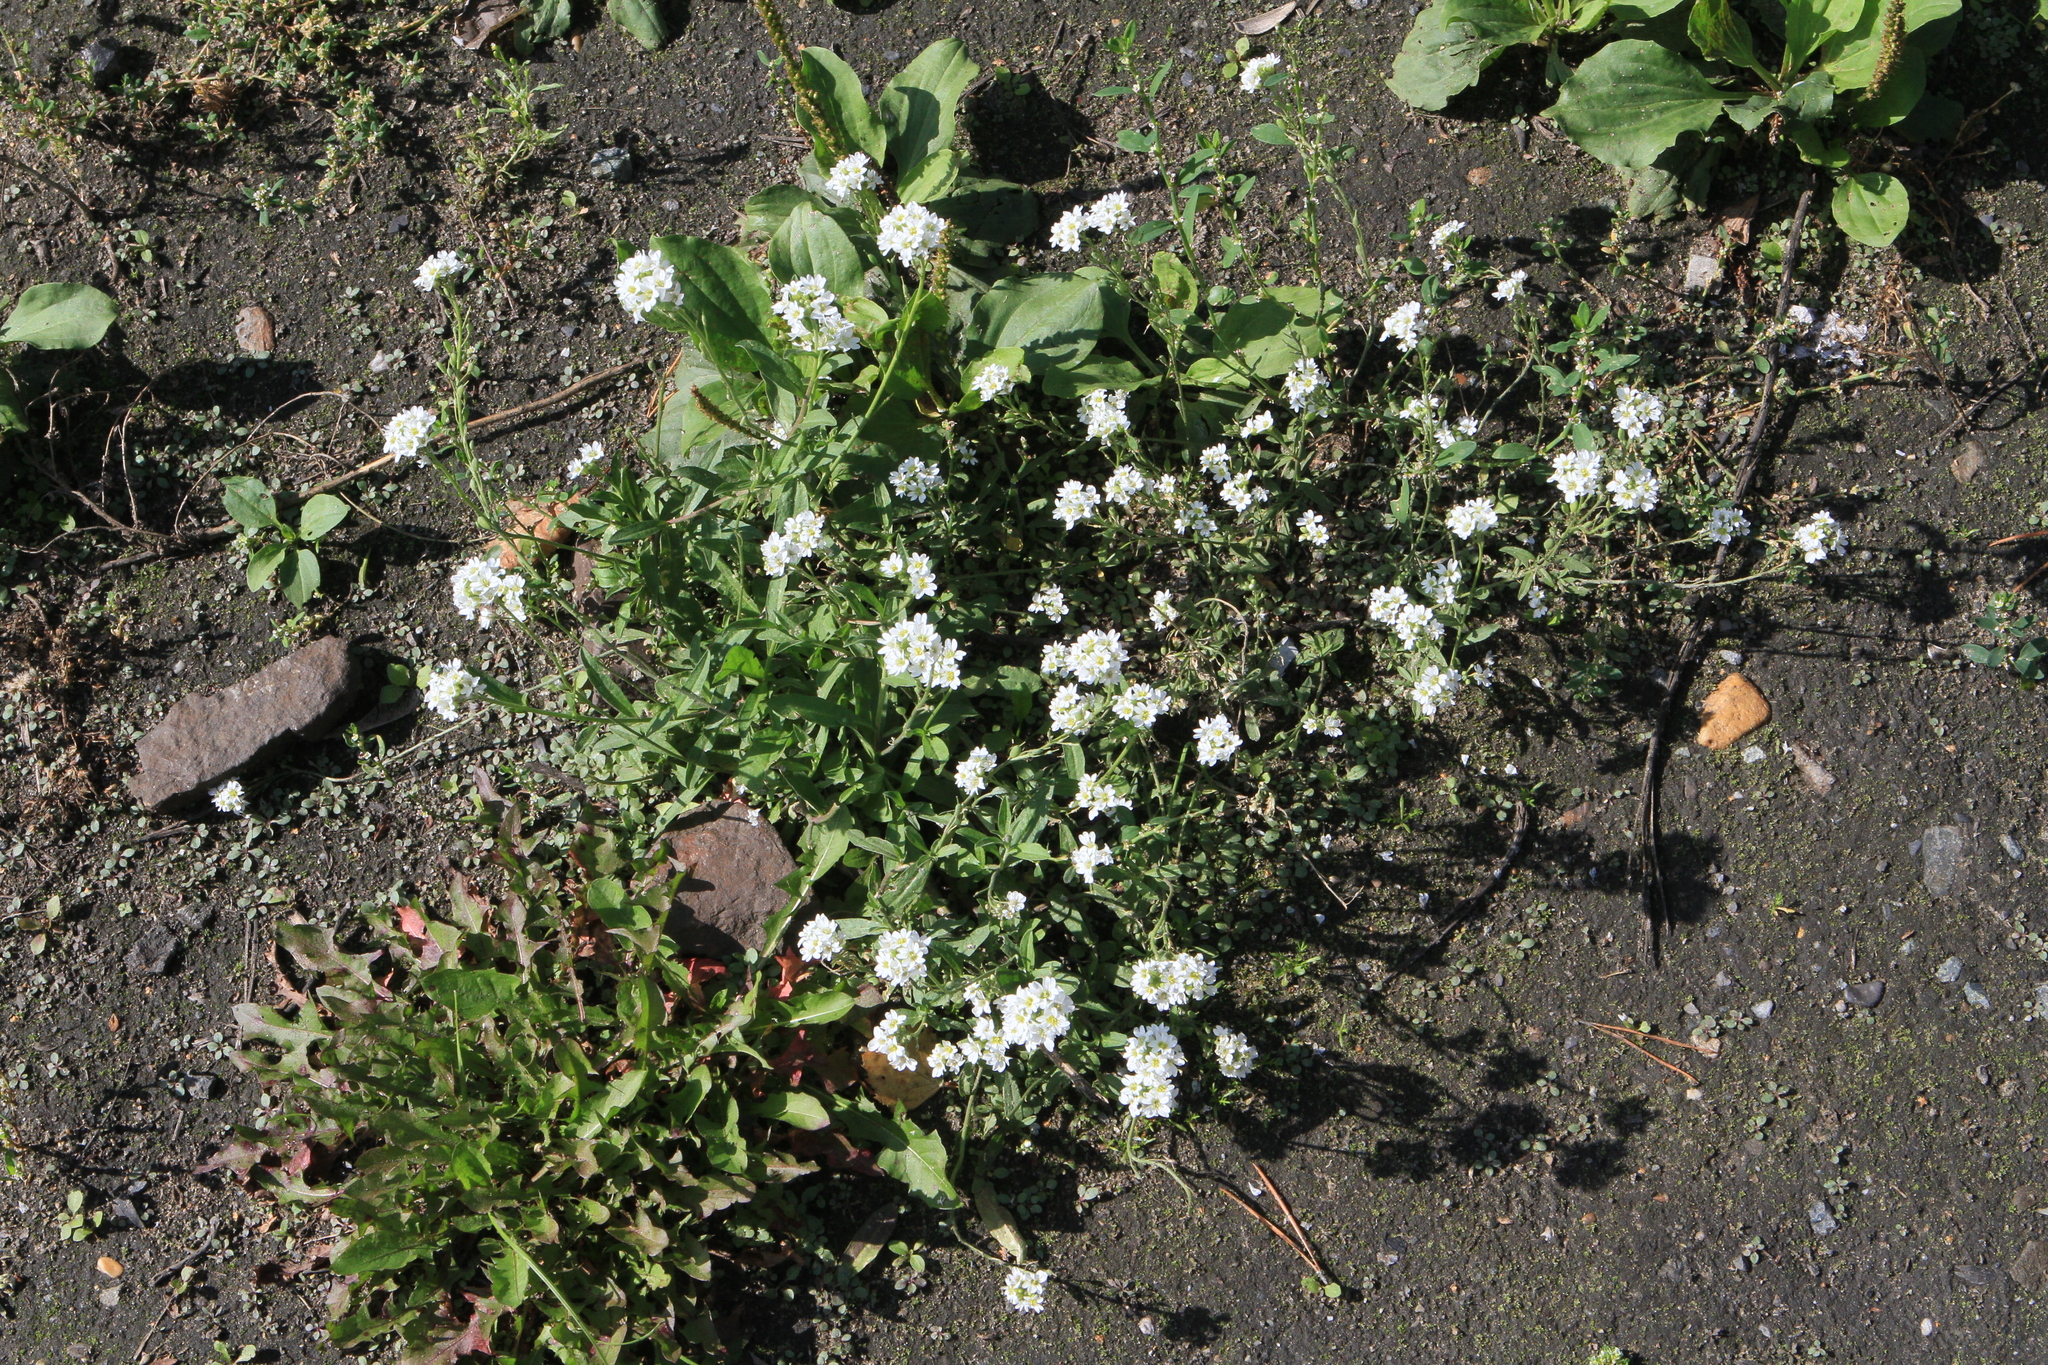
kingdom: Plantae
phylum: Tracheophyta
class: Magnoliopsida
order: Brassicales
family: Brassicaceae
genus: Berteroa
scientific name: Berteroa incana
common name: Hoary alison
